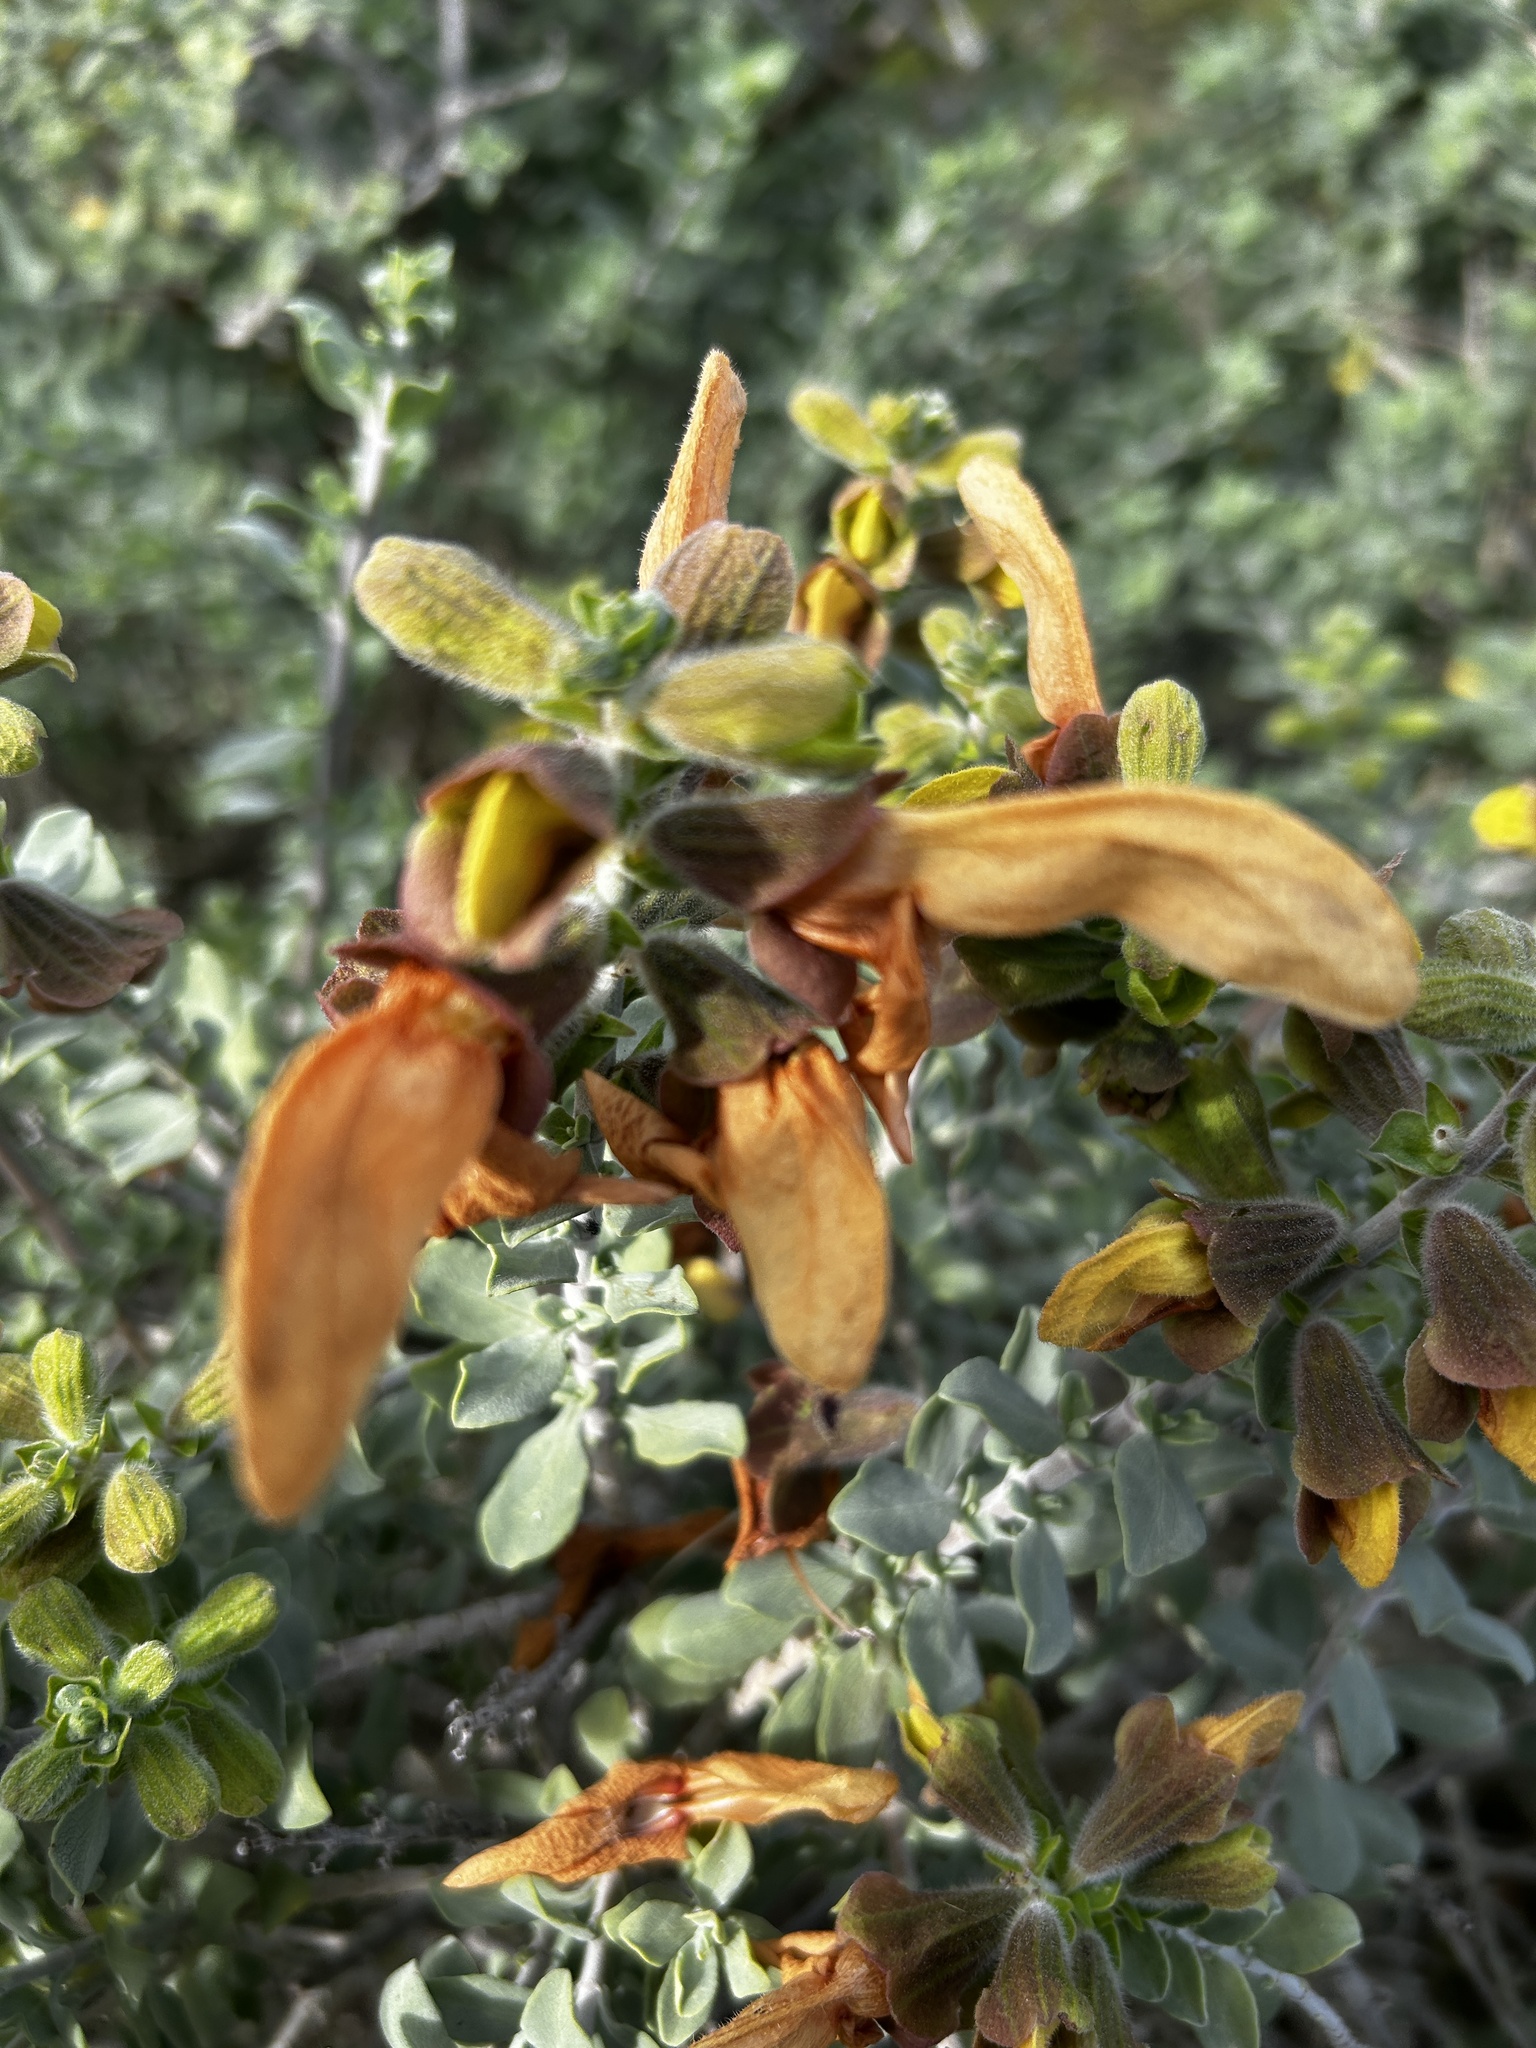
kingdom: Plantae
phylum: Tracheophyta
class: Magnoliopsida
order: Lamiales
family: Lamiaceae
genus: Salvia
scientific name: Salvia aurea
